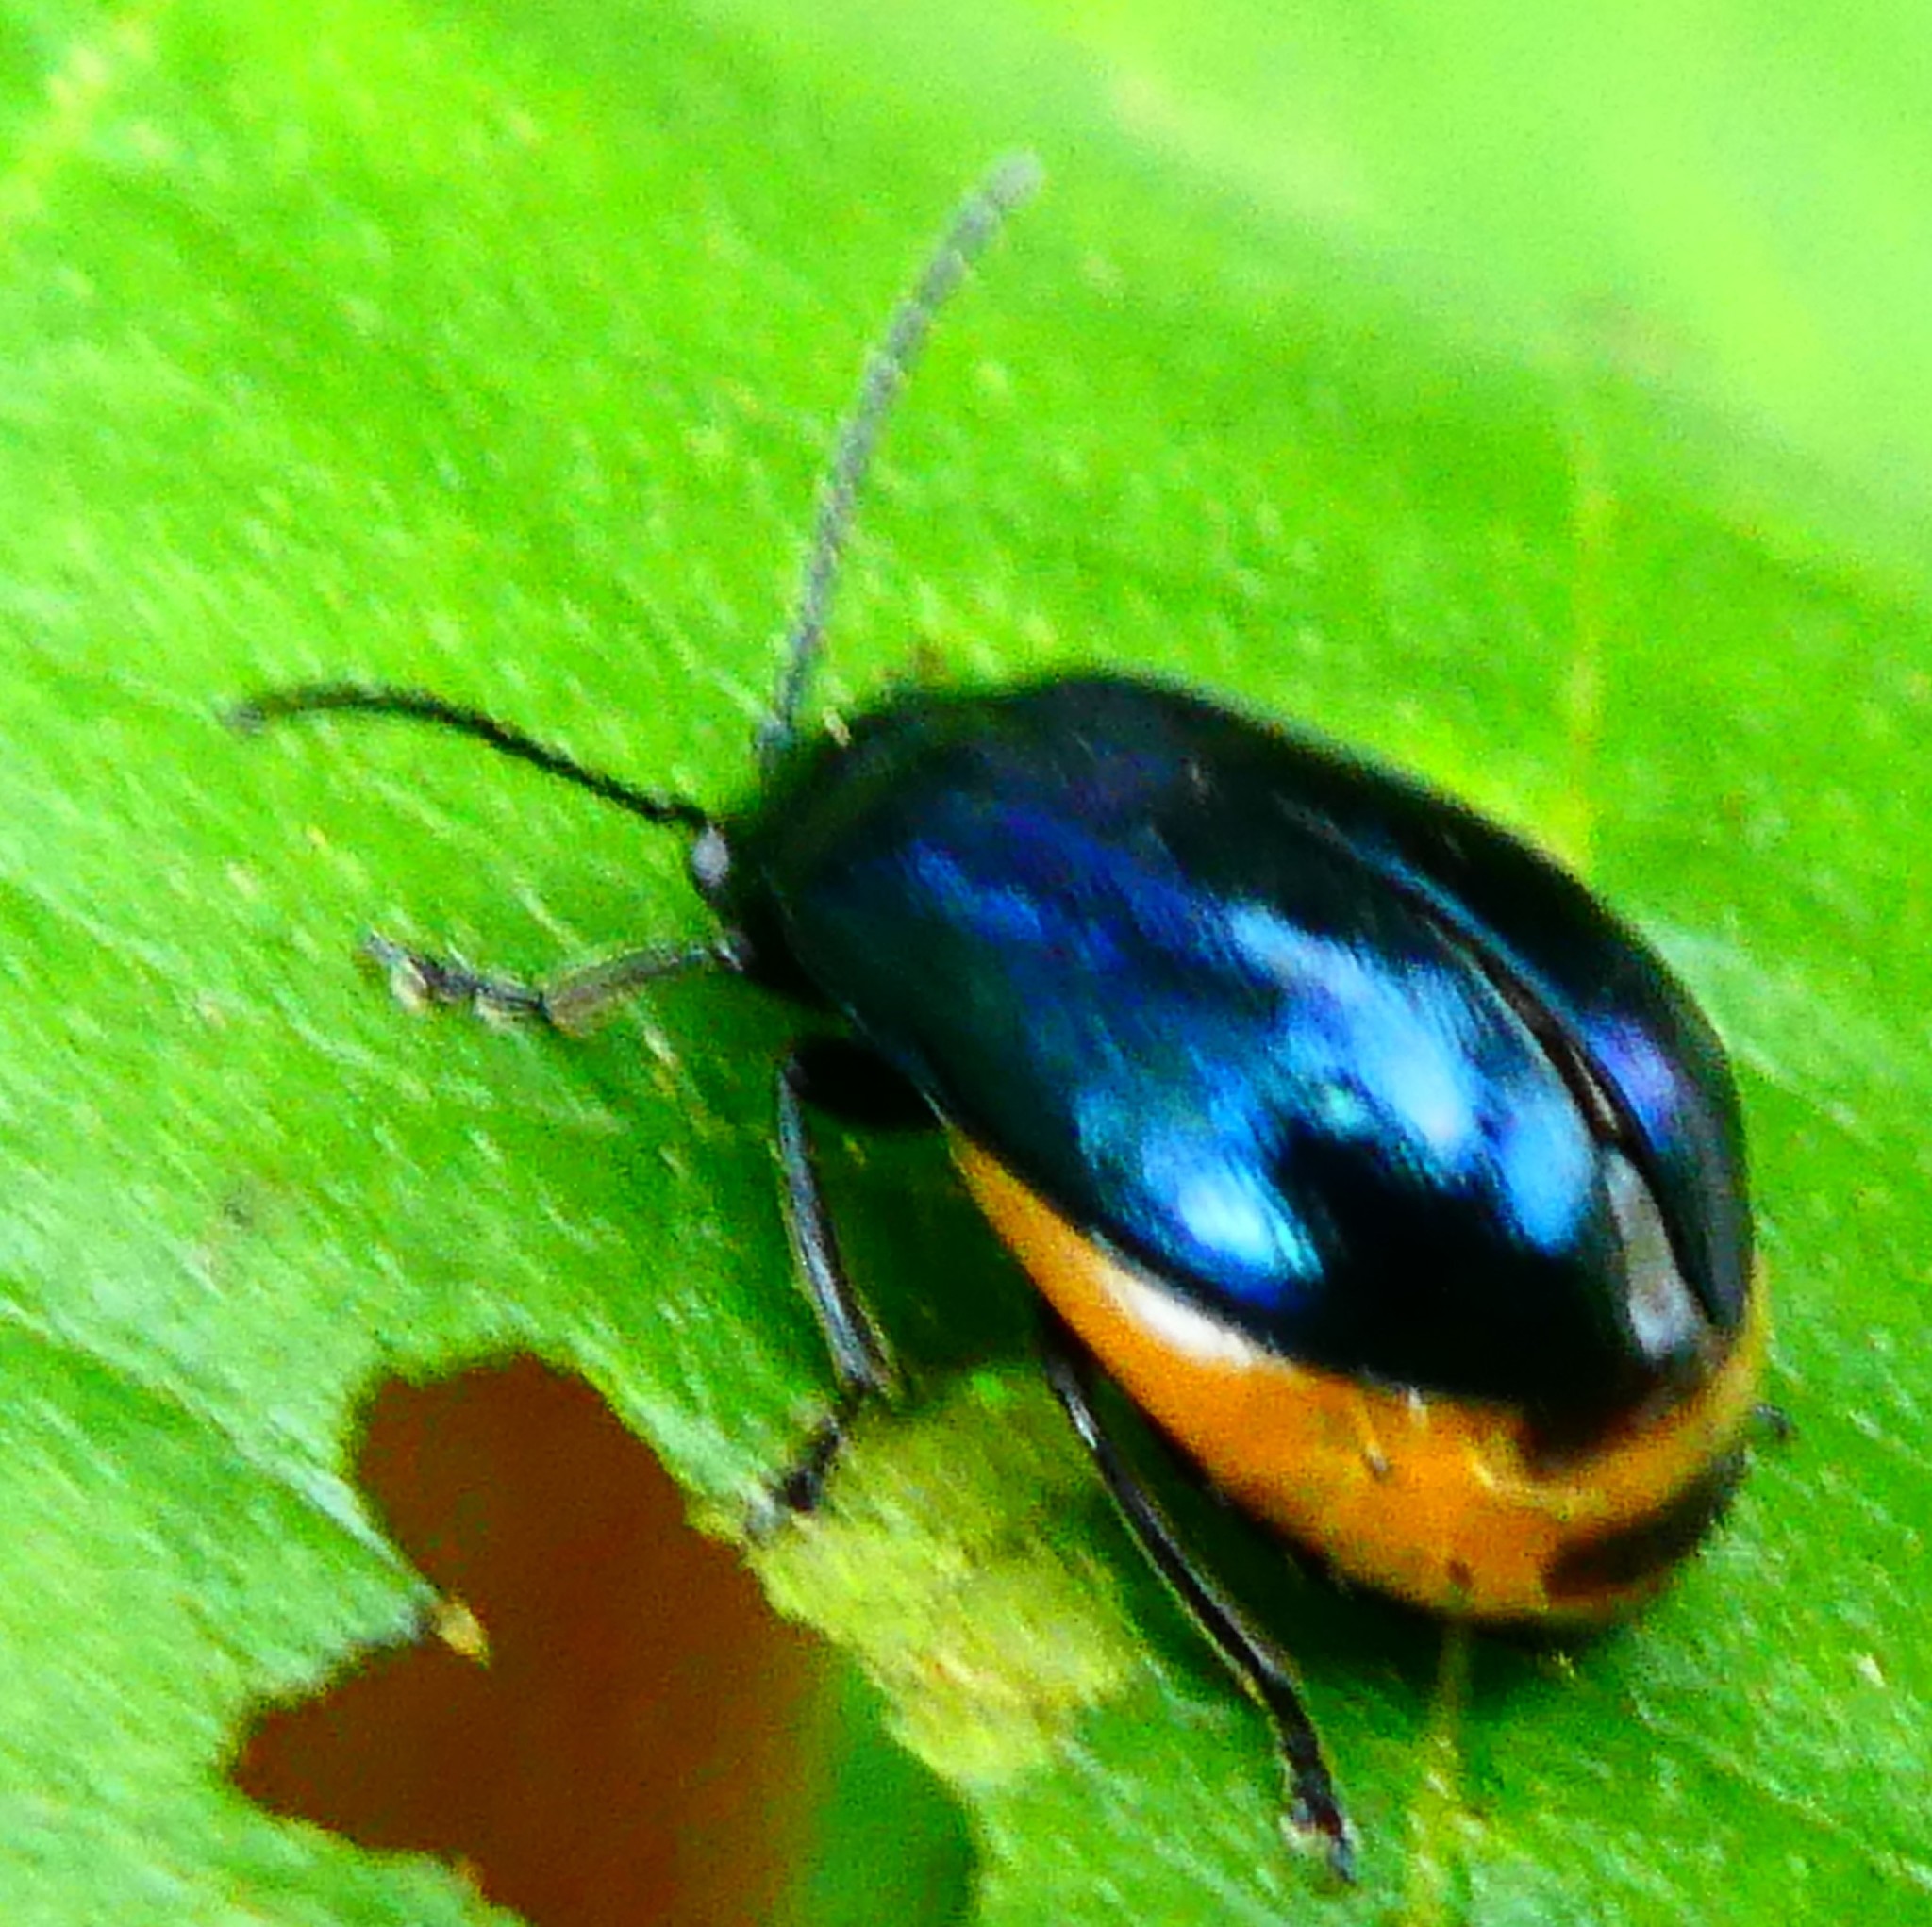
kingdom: Animalia
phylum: Arthropoda
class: Insecta
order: Coleoptera
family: Chrysomelidae
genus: Agelastica
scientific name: Agelastica alni
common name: Alder leaf beetle
